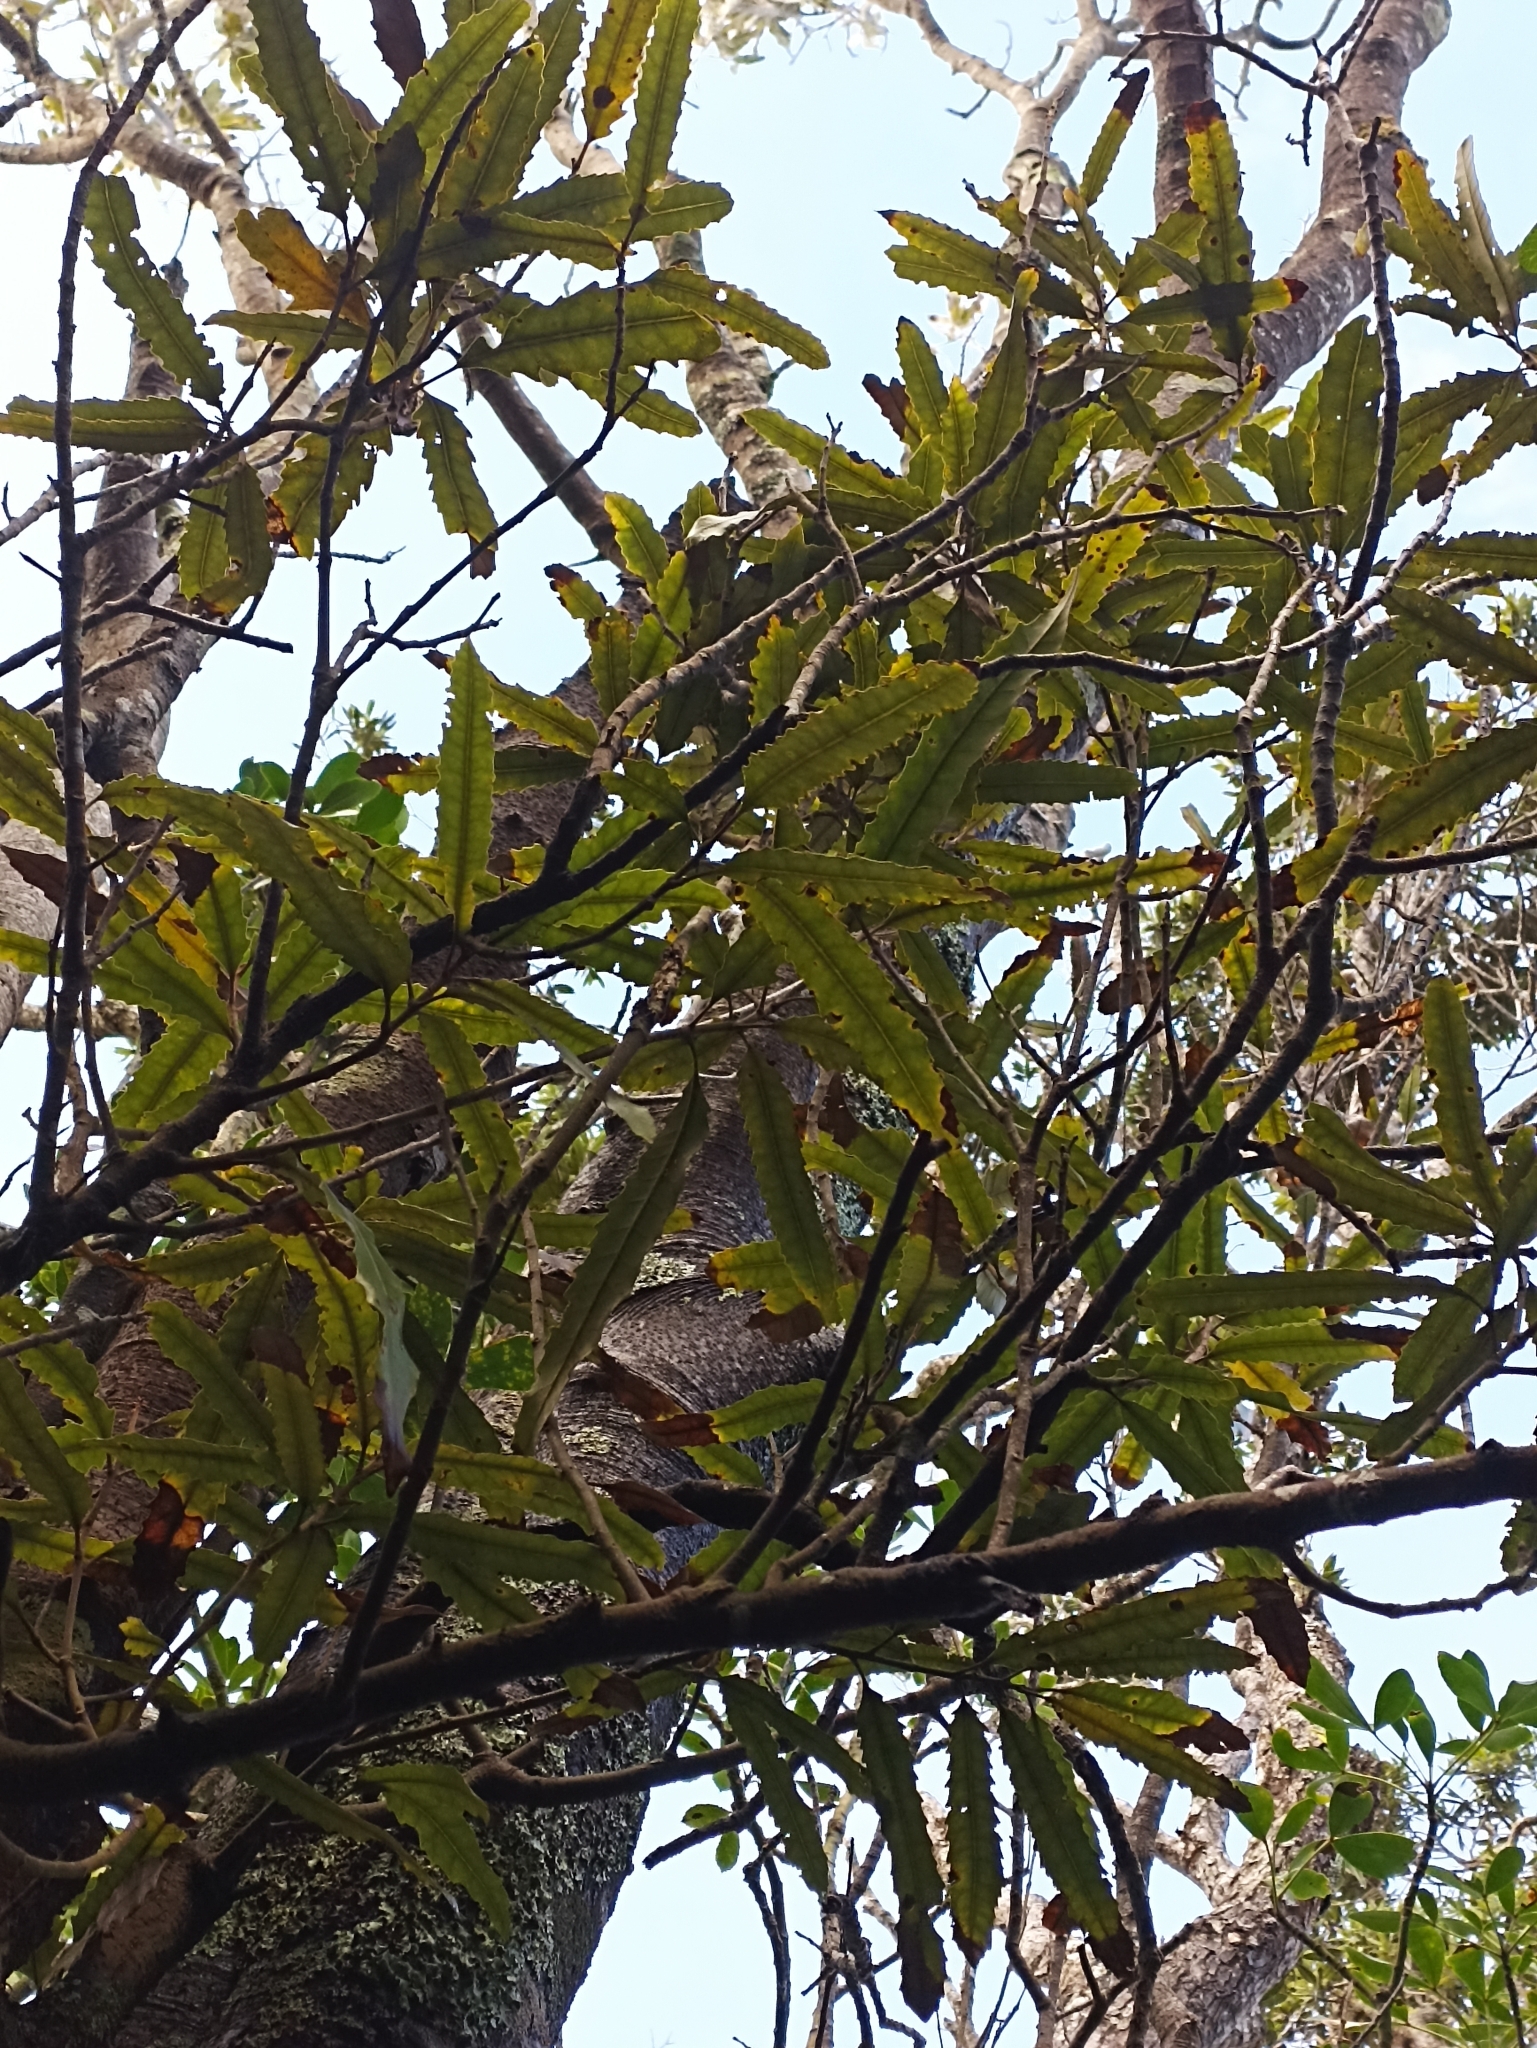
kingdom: Plantae
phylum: Tracheophyta
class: Magnoliopsida
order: Proteales
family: Proteaceae
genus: Knightia
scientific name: Knightia excelsa
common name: New zealand-honeysuckle
